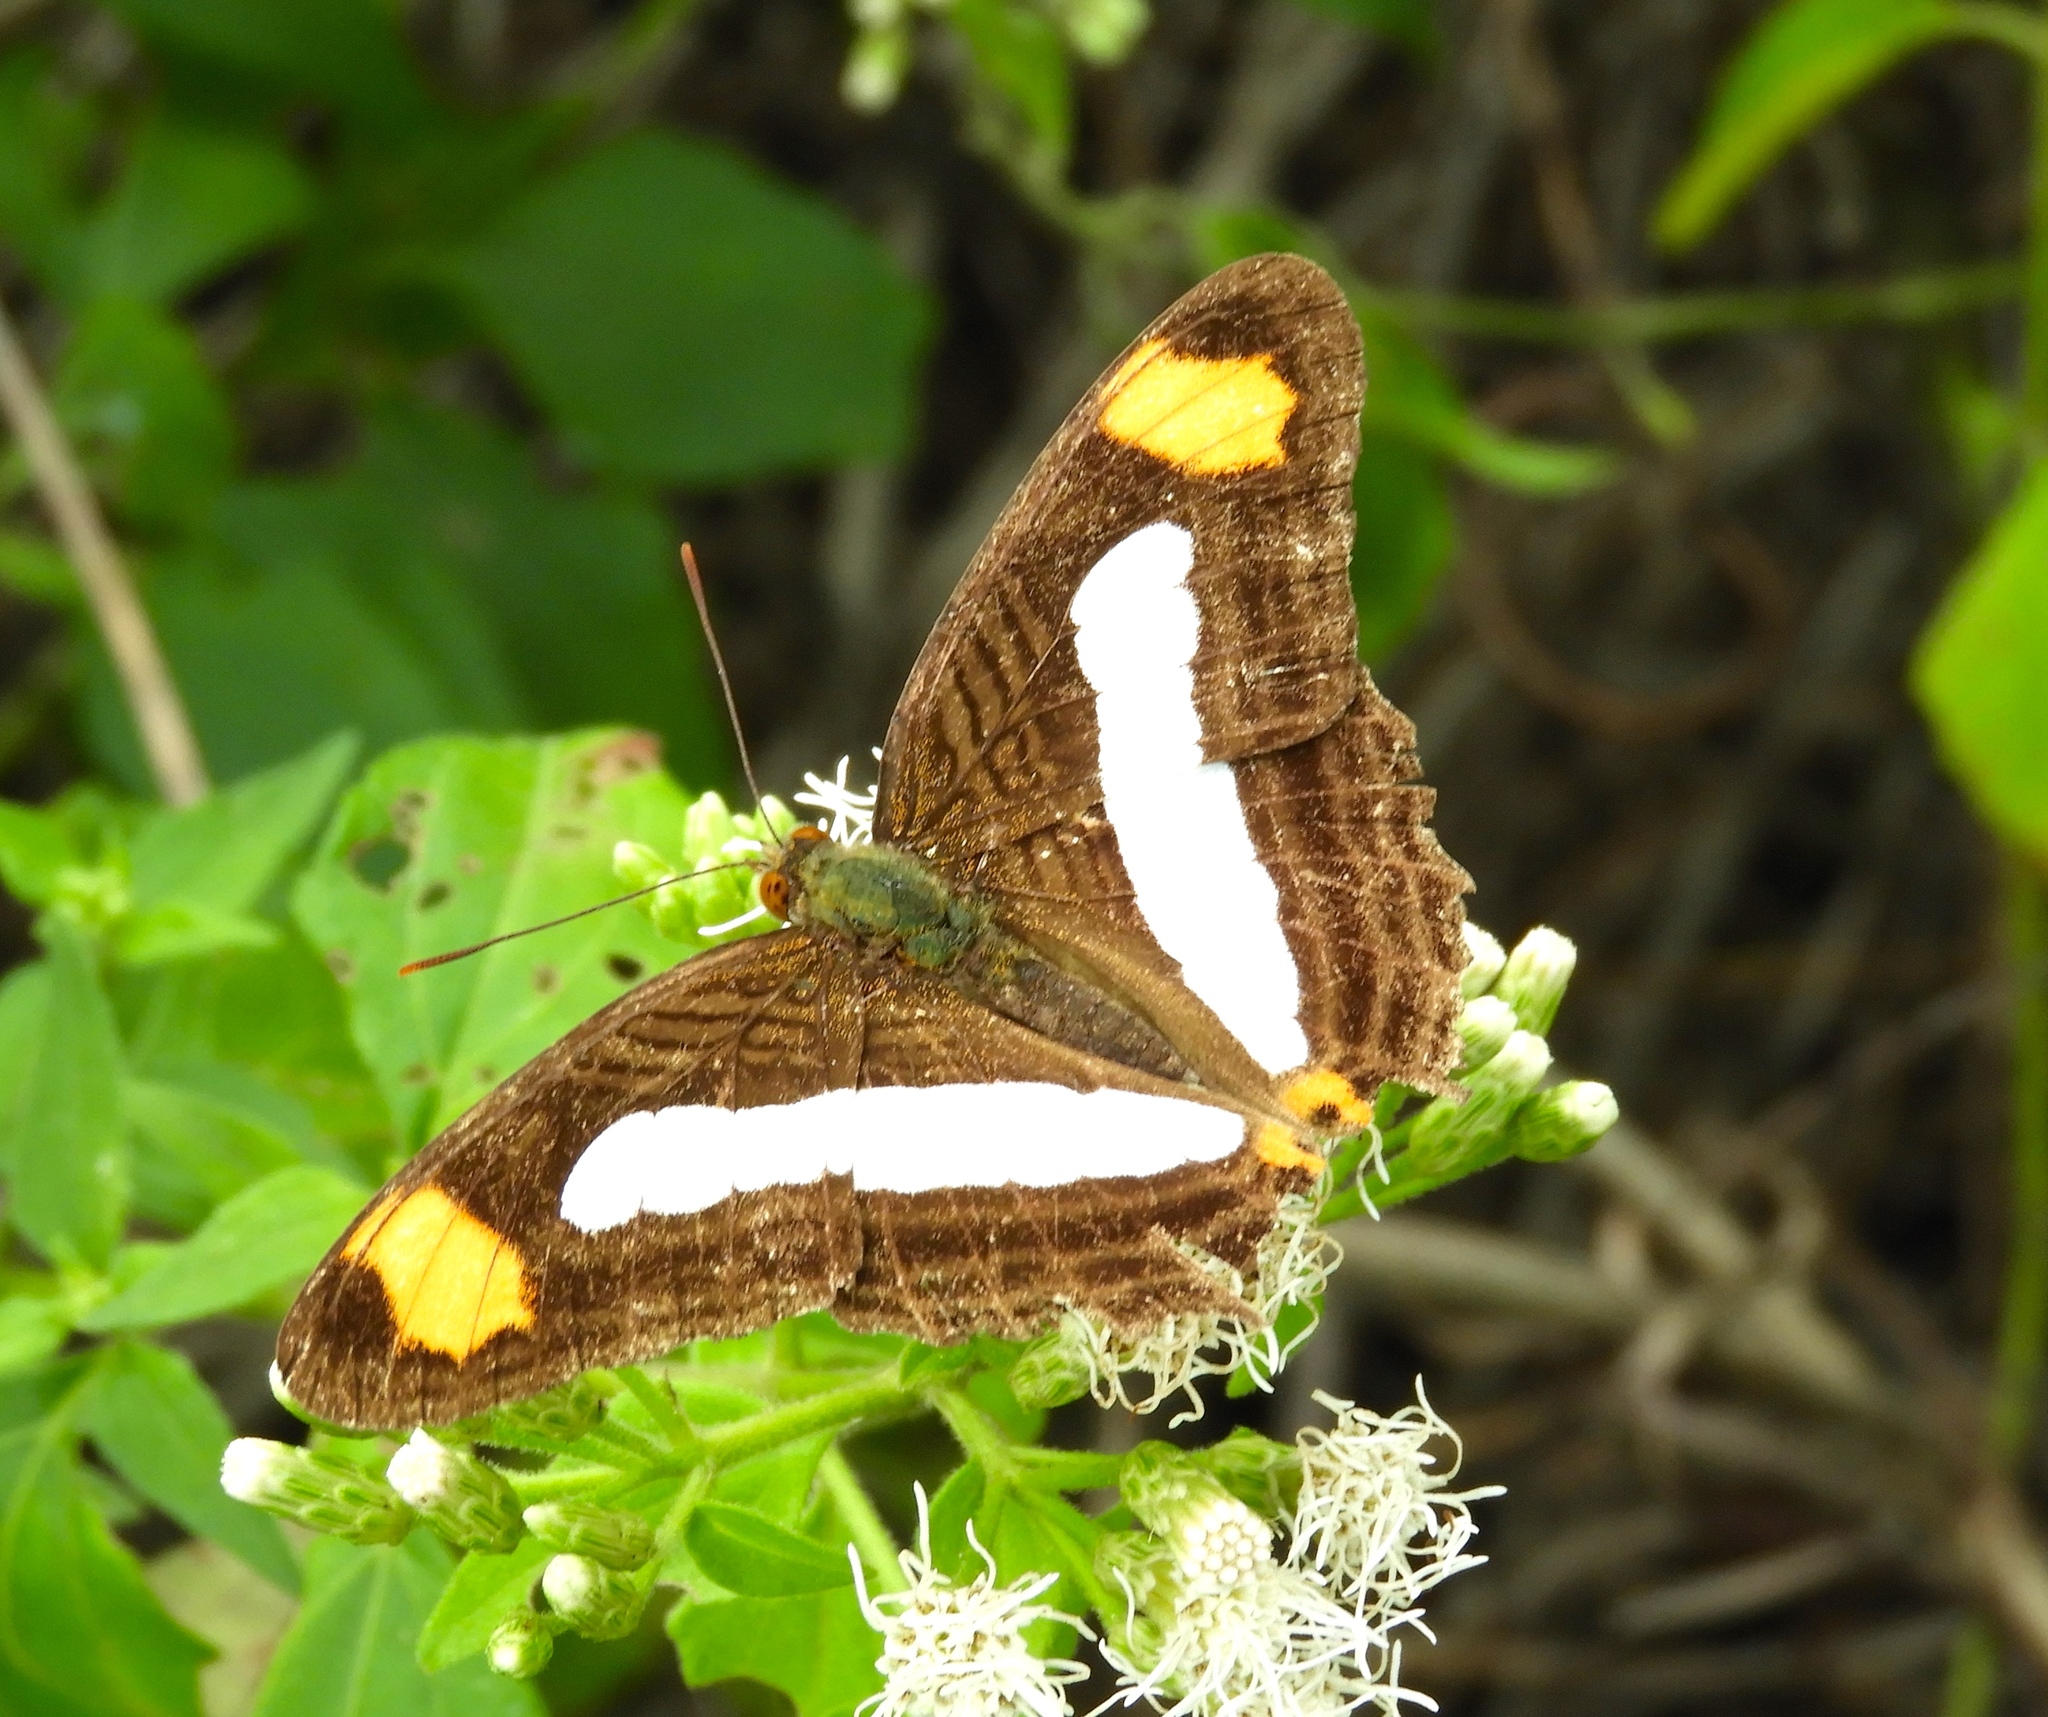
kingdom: Animalia
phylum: Arthropoda
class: Insecta
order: Lepidoptera
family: Nymphalidae
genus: Limenitis
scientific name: Limenitis iphiclus
